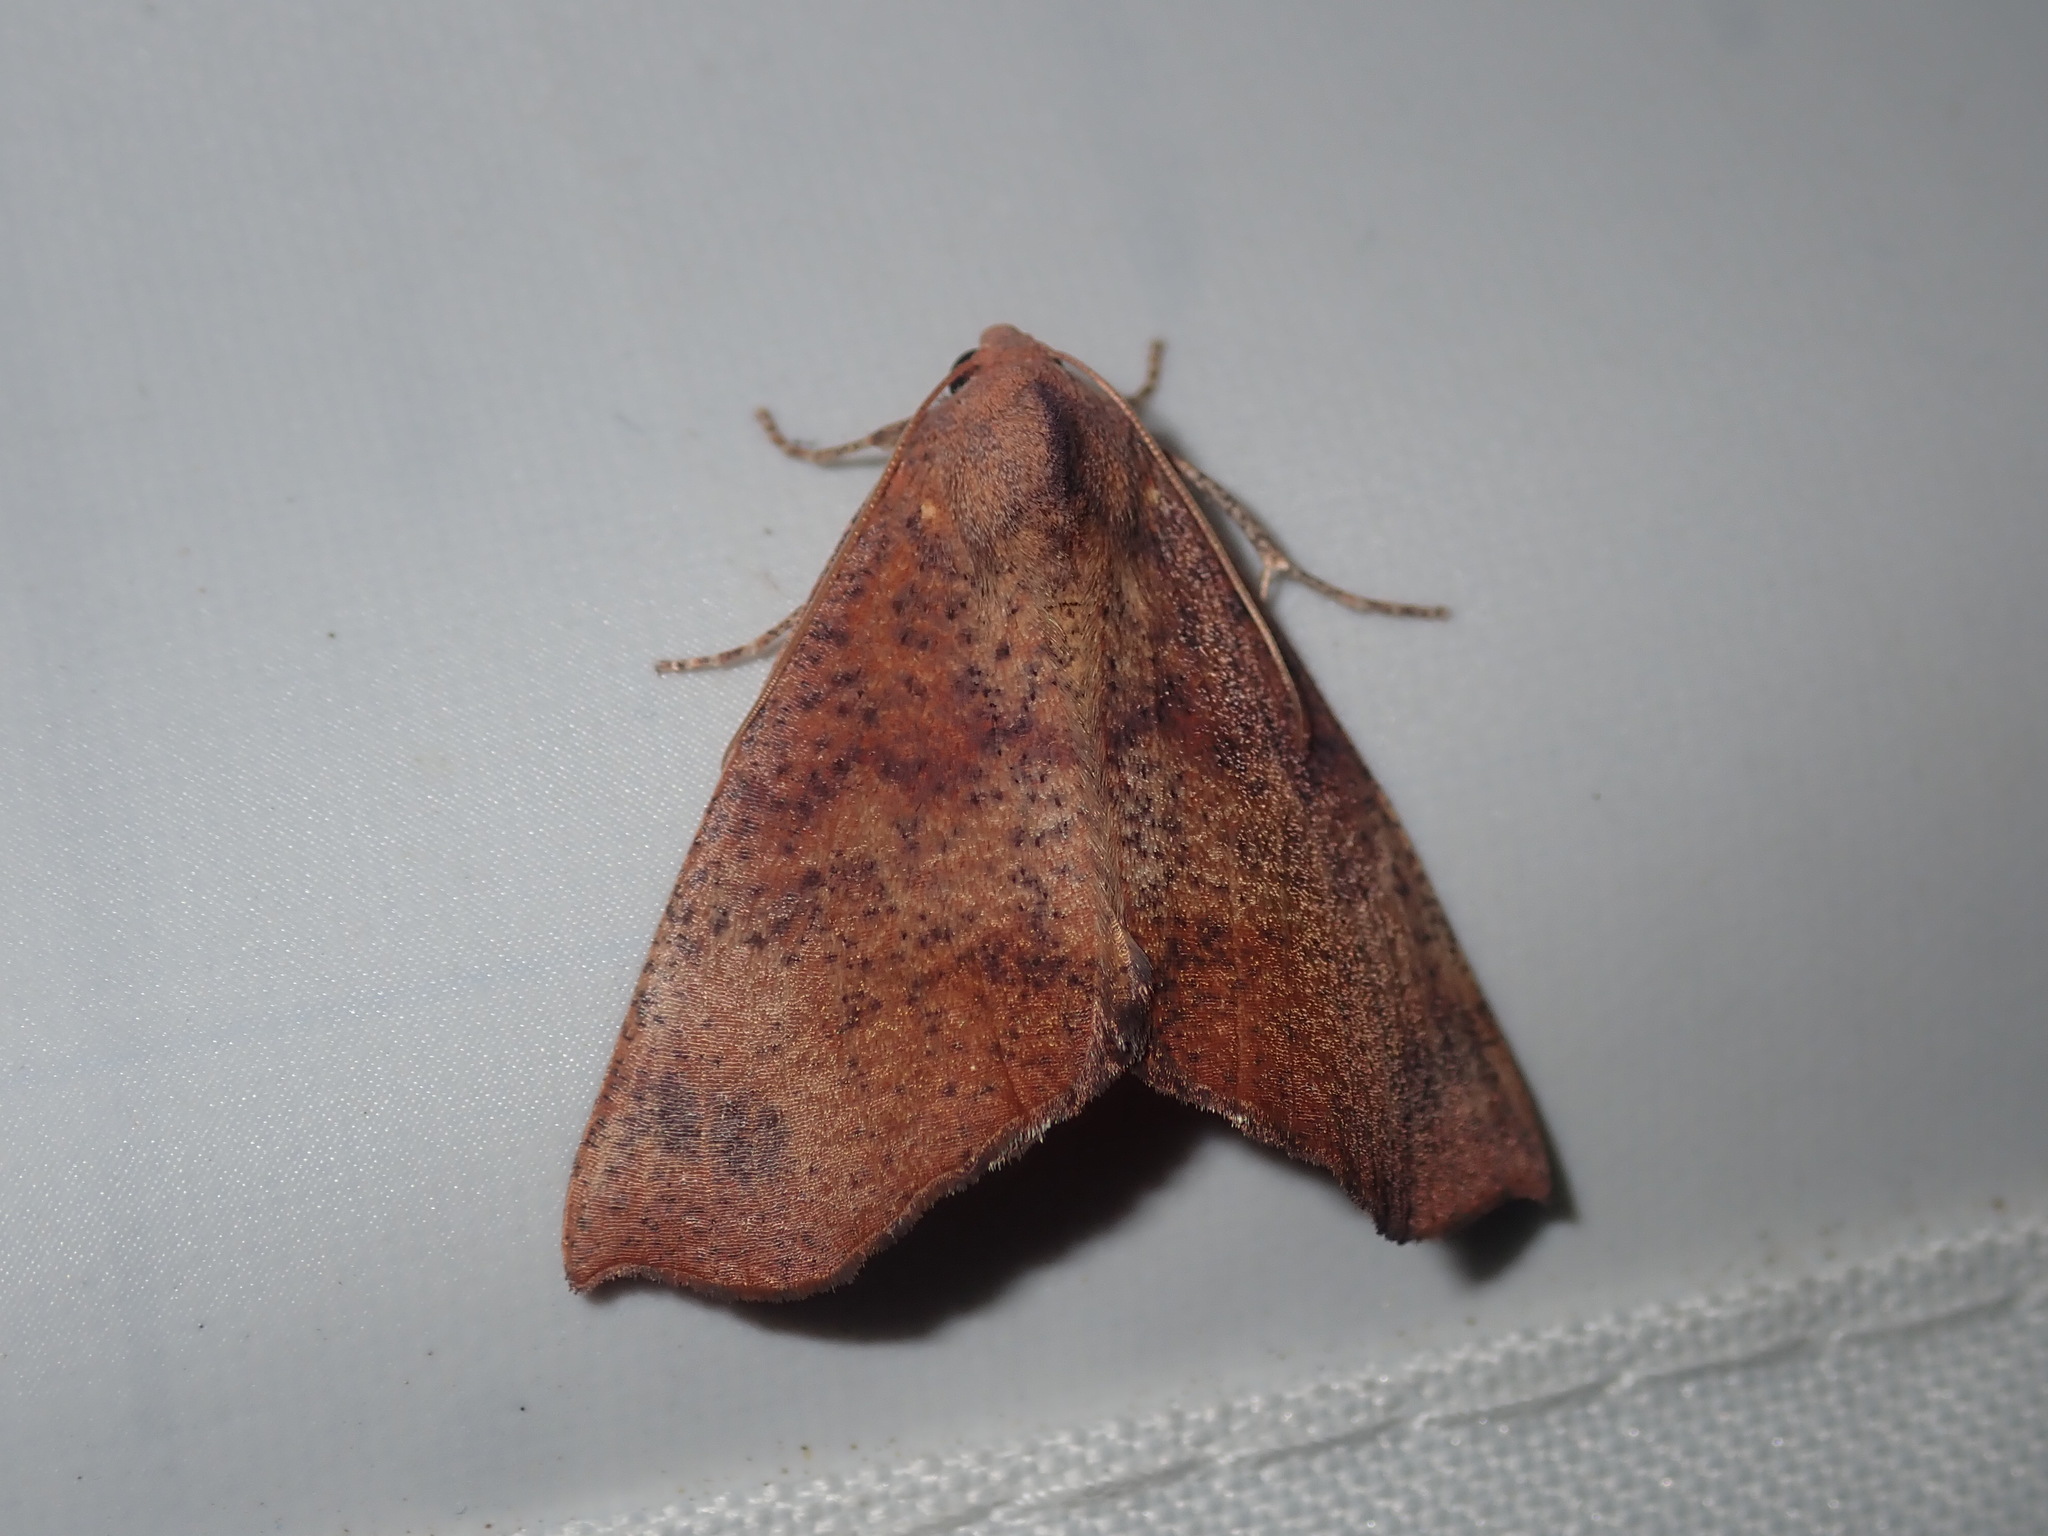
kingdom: Animalia
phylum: Arthropoda
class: Insecta
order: Lepidoptera
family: Geometridae
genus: Mnesampela
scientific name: Mnesampela privata
